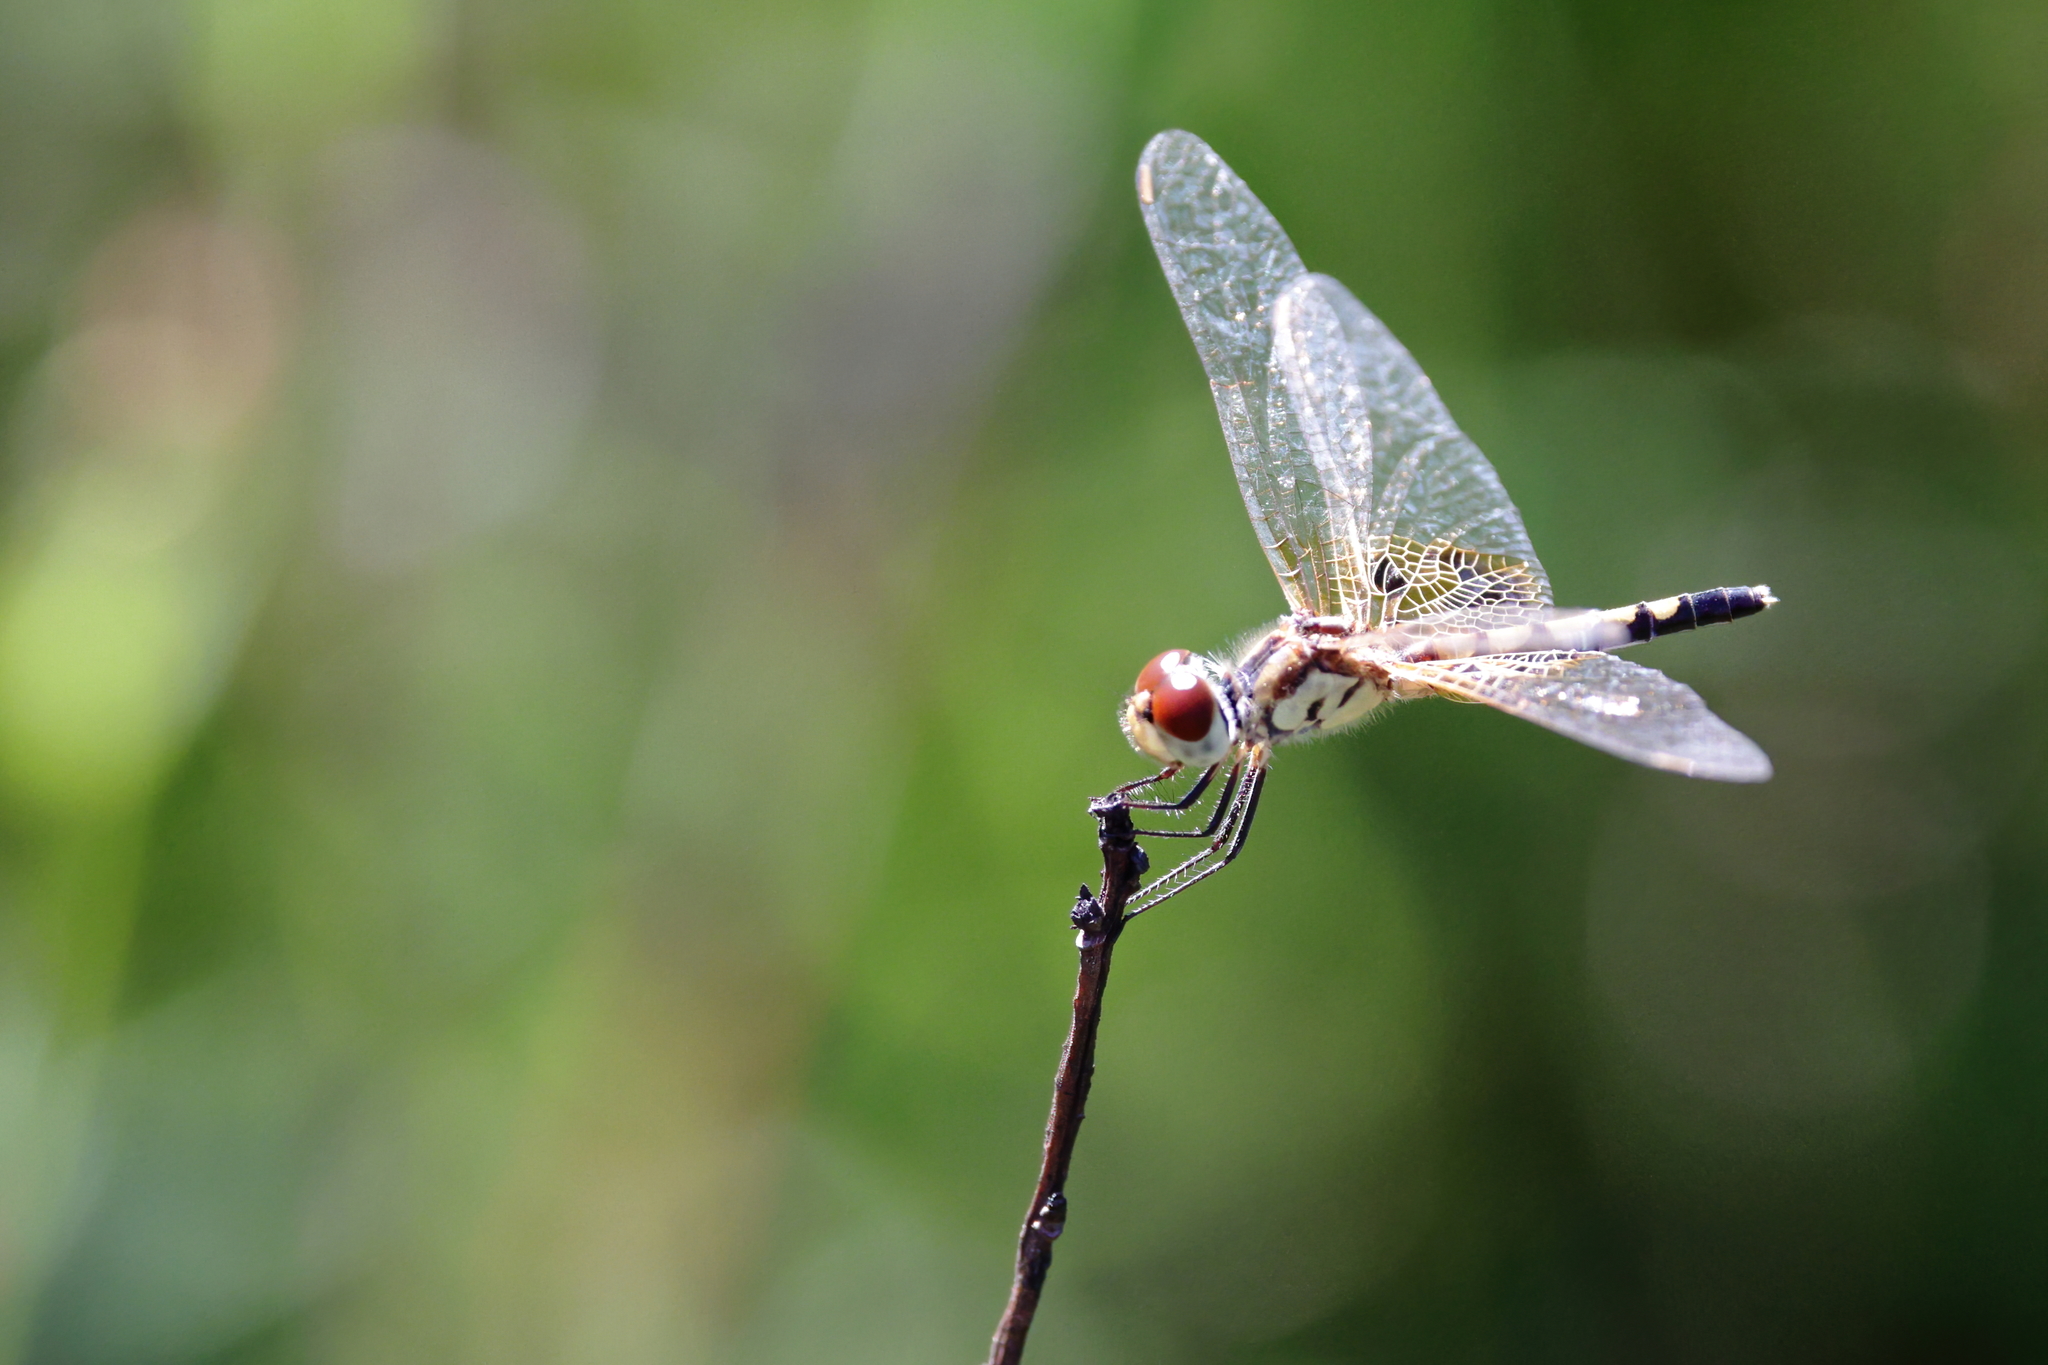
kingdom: Animalia
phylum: Arthropoda
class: Insecta
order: Odonata
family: Libellulidae
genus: Celithemis
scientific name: Celithemis amanda
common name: Amanda's pennant
